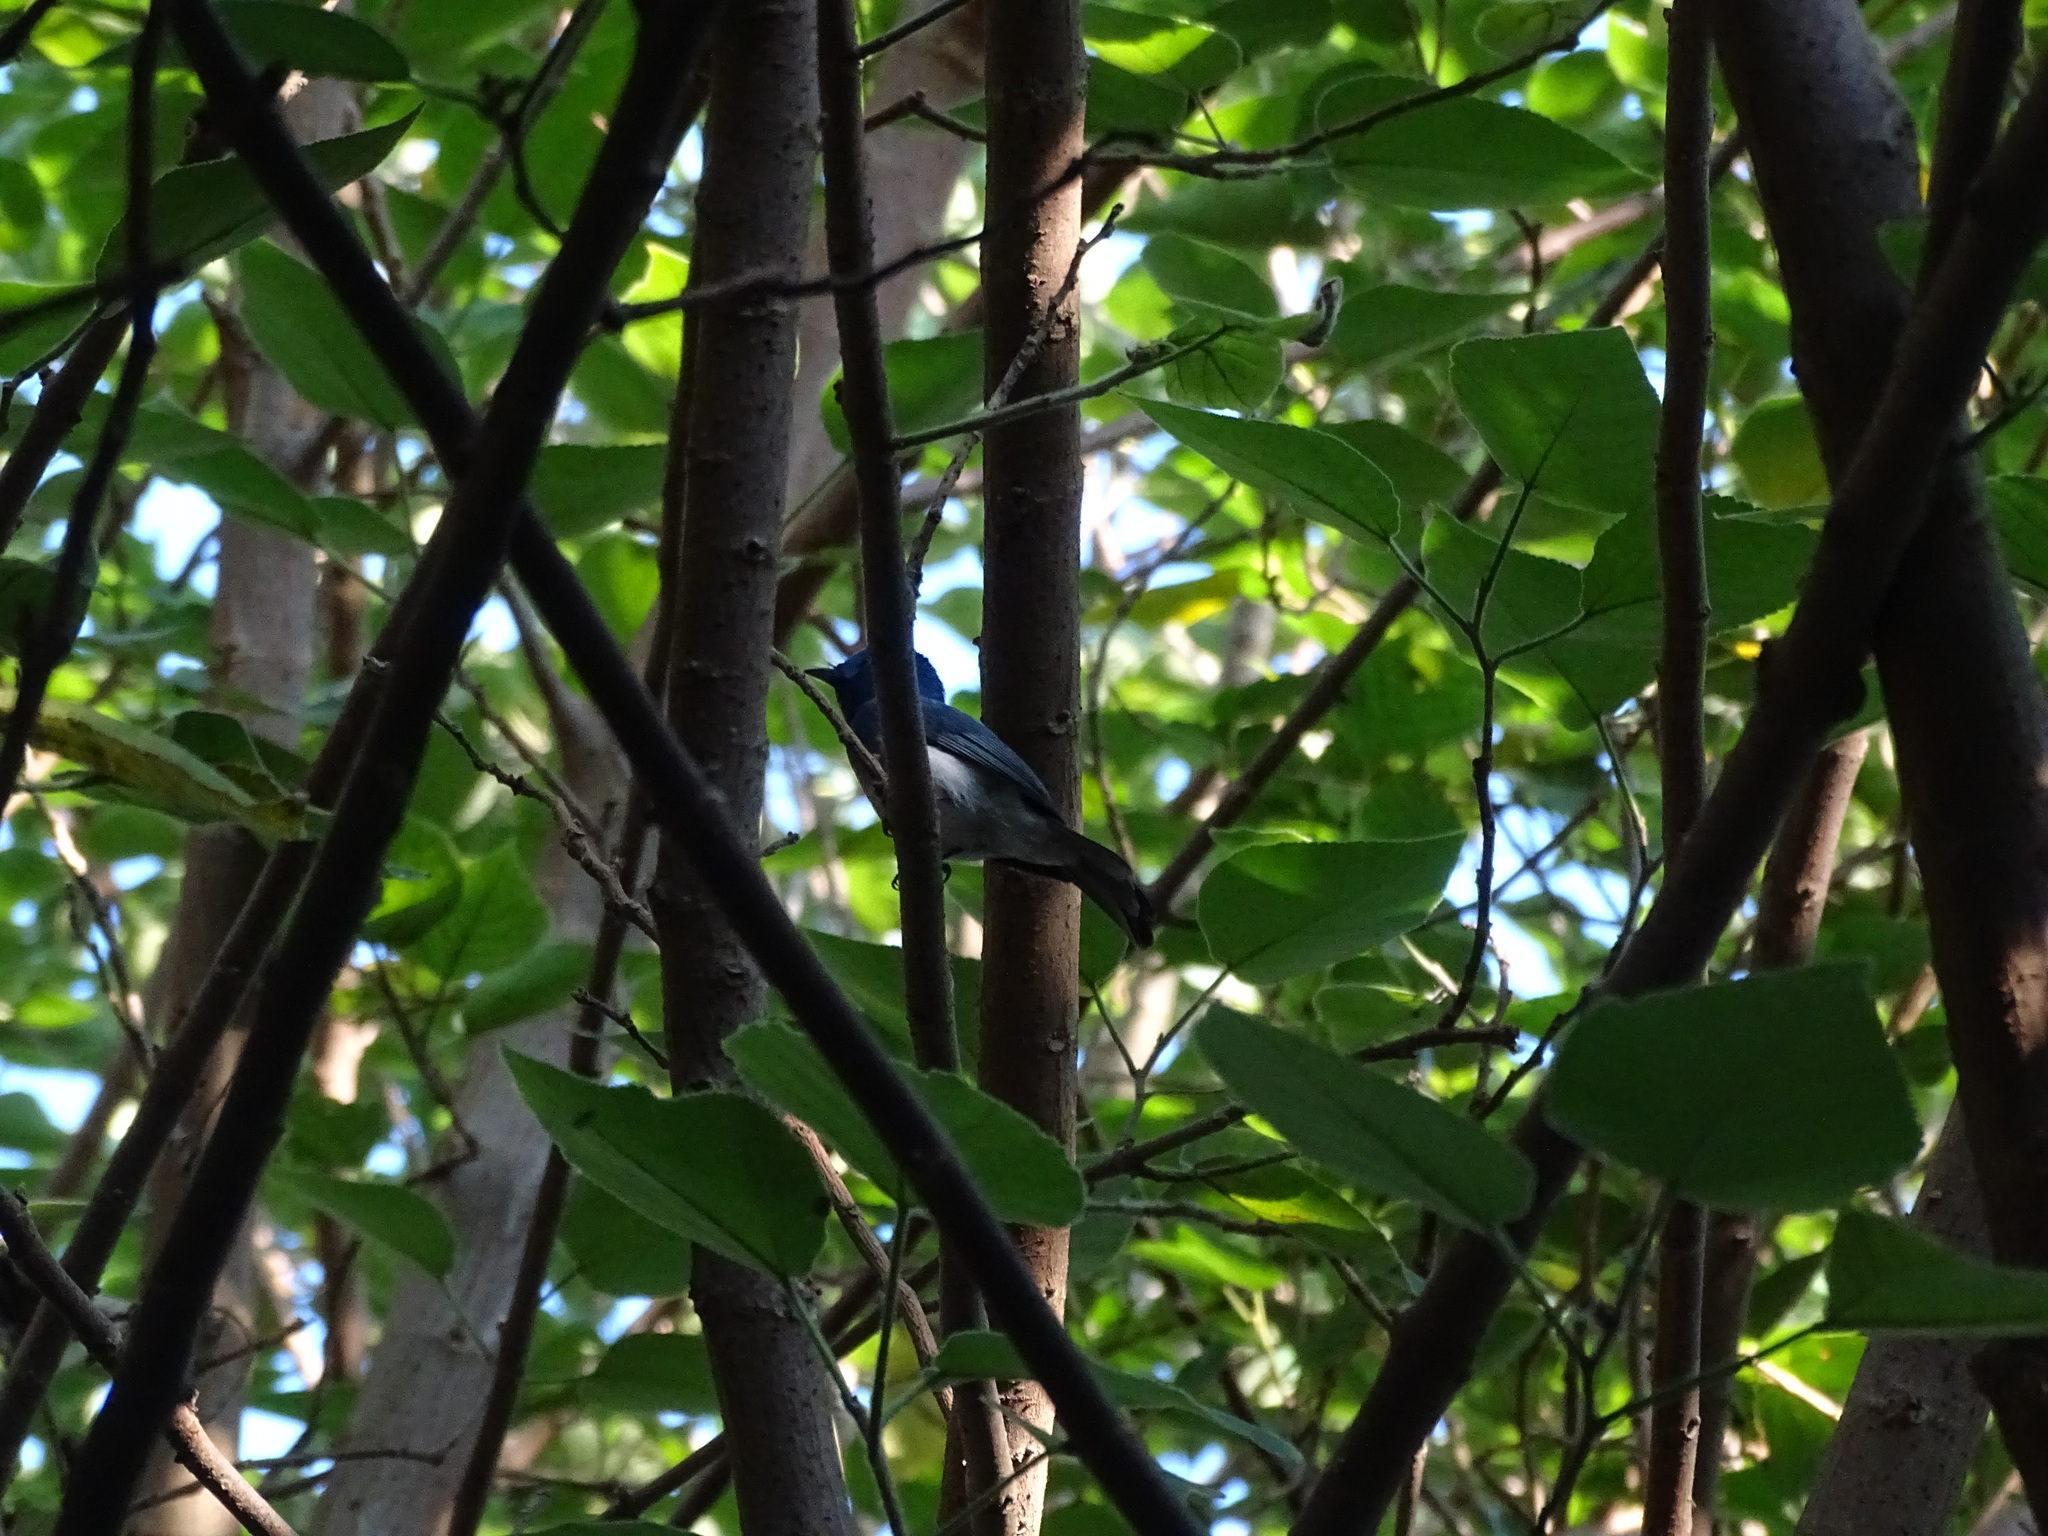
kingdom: Animalia
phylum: Chordata
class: Aves
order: Passeriformes
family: Monarchidae
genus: Hypothymis
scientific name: Hypothymis azurea
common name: Black-naped monarch
